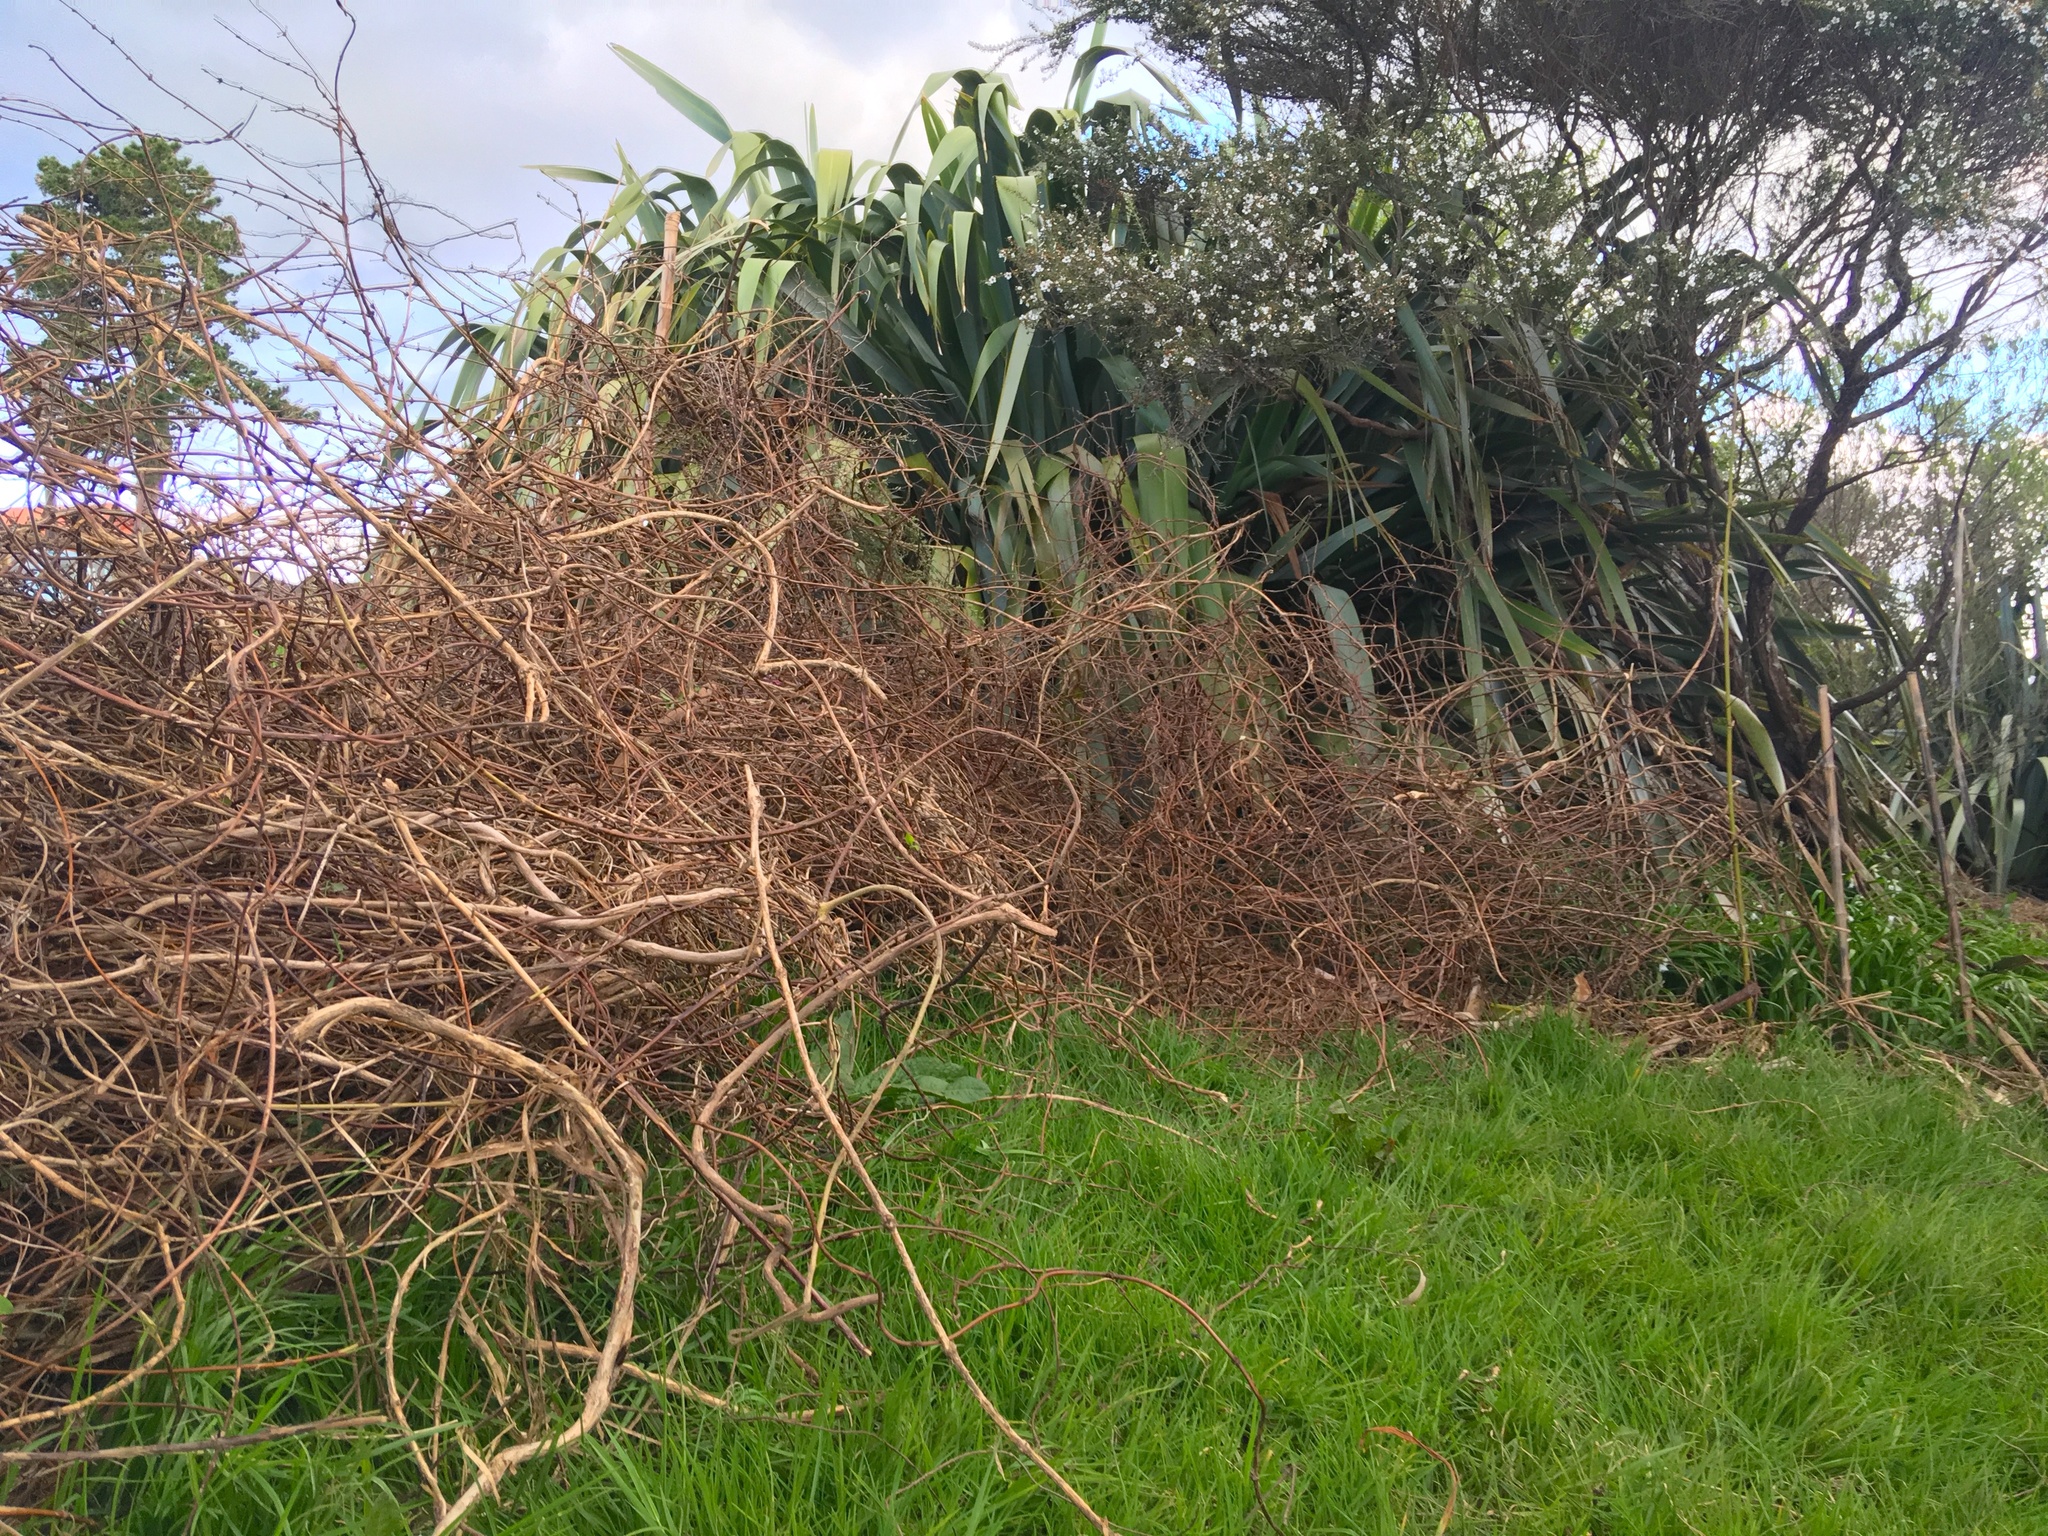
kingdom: Plantae
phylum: Tracheophyta
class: Liliopsida
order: Poales
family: Poaceae
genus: Cenchrus
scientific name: Cenchrus clandestinus
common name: Kikuyugrass
